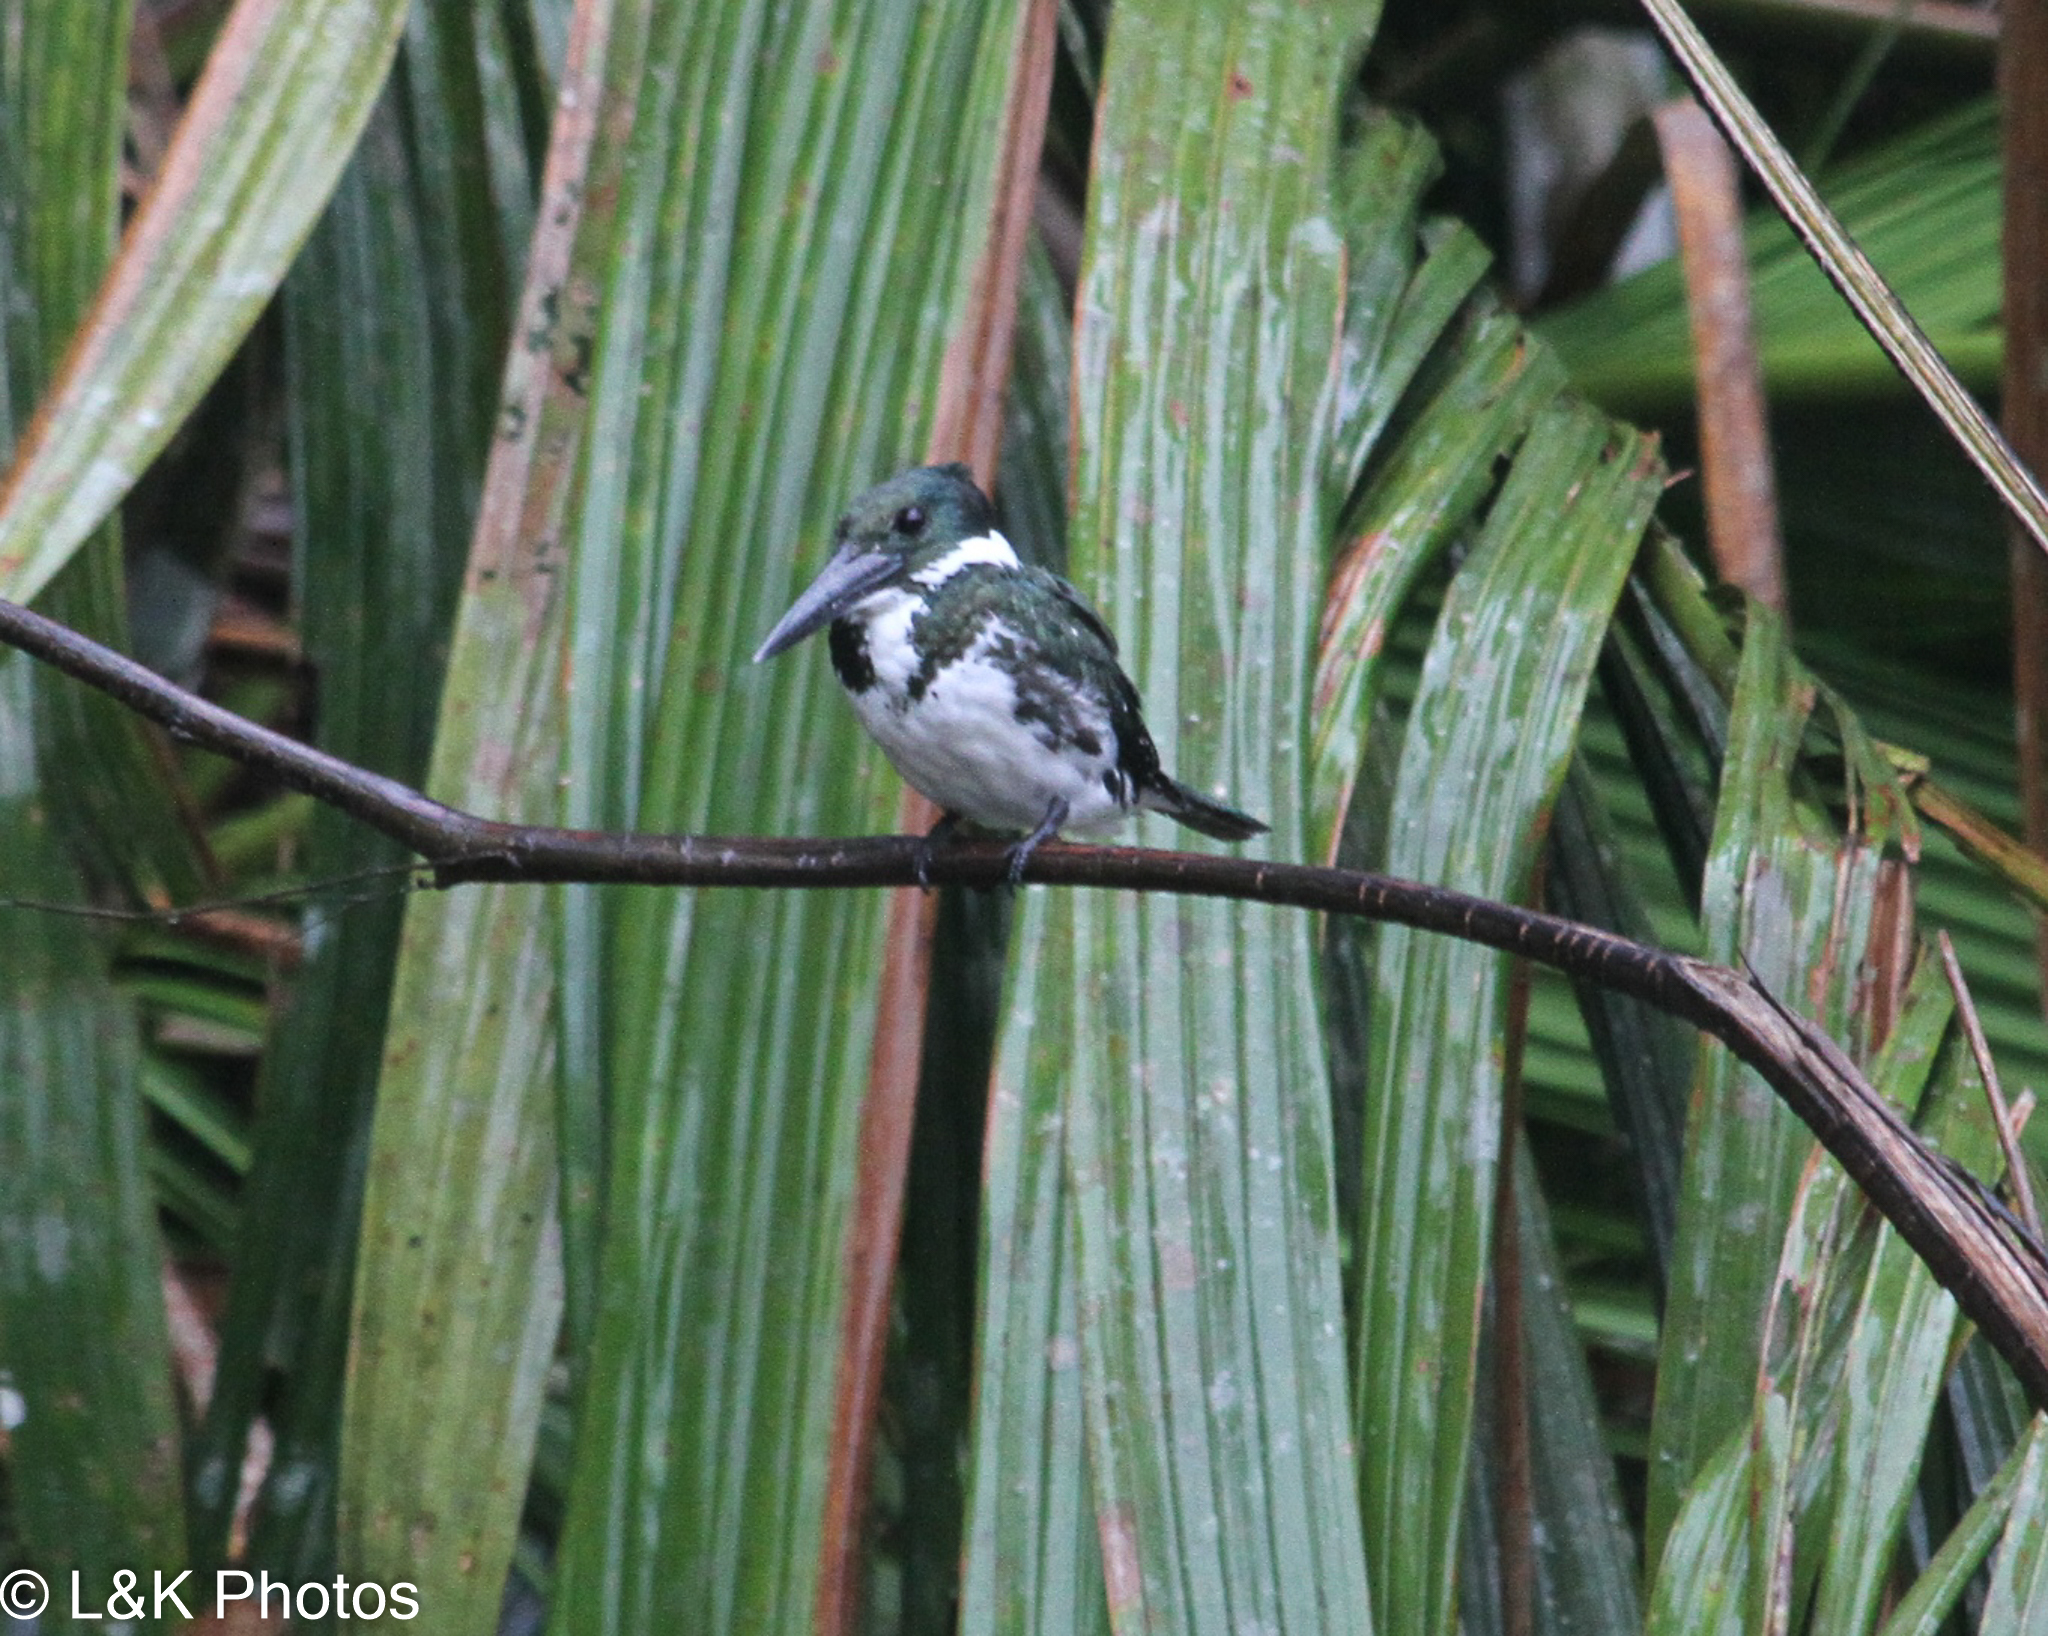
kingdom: Animalia
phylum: Chordata
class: Aves
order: Coraciiformes
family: Alcedinidae
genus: Chloroceryle
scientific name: Chloroceryle amazona
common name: Amazon kingfisher
